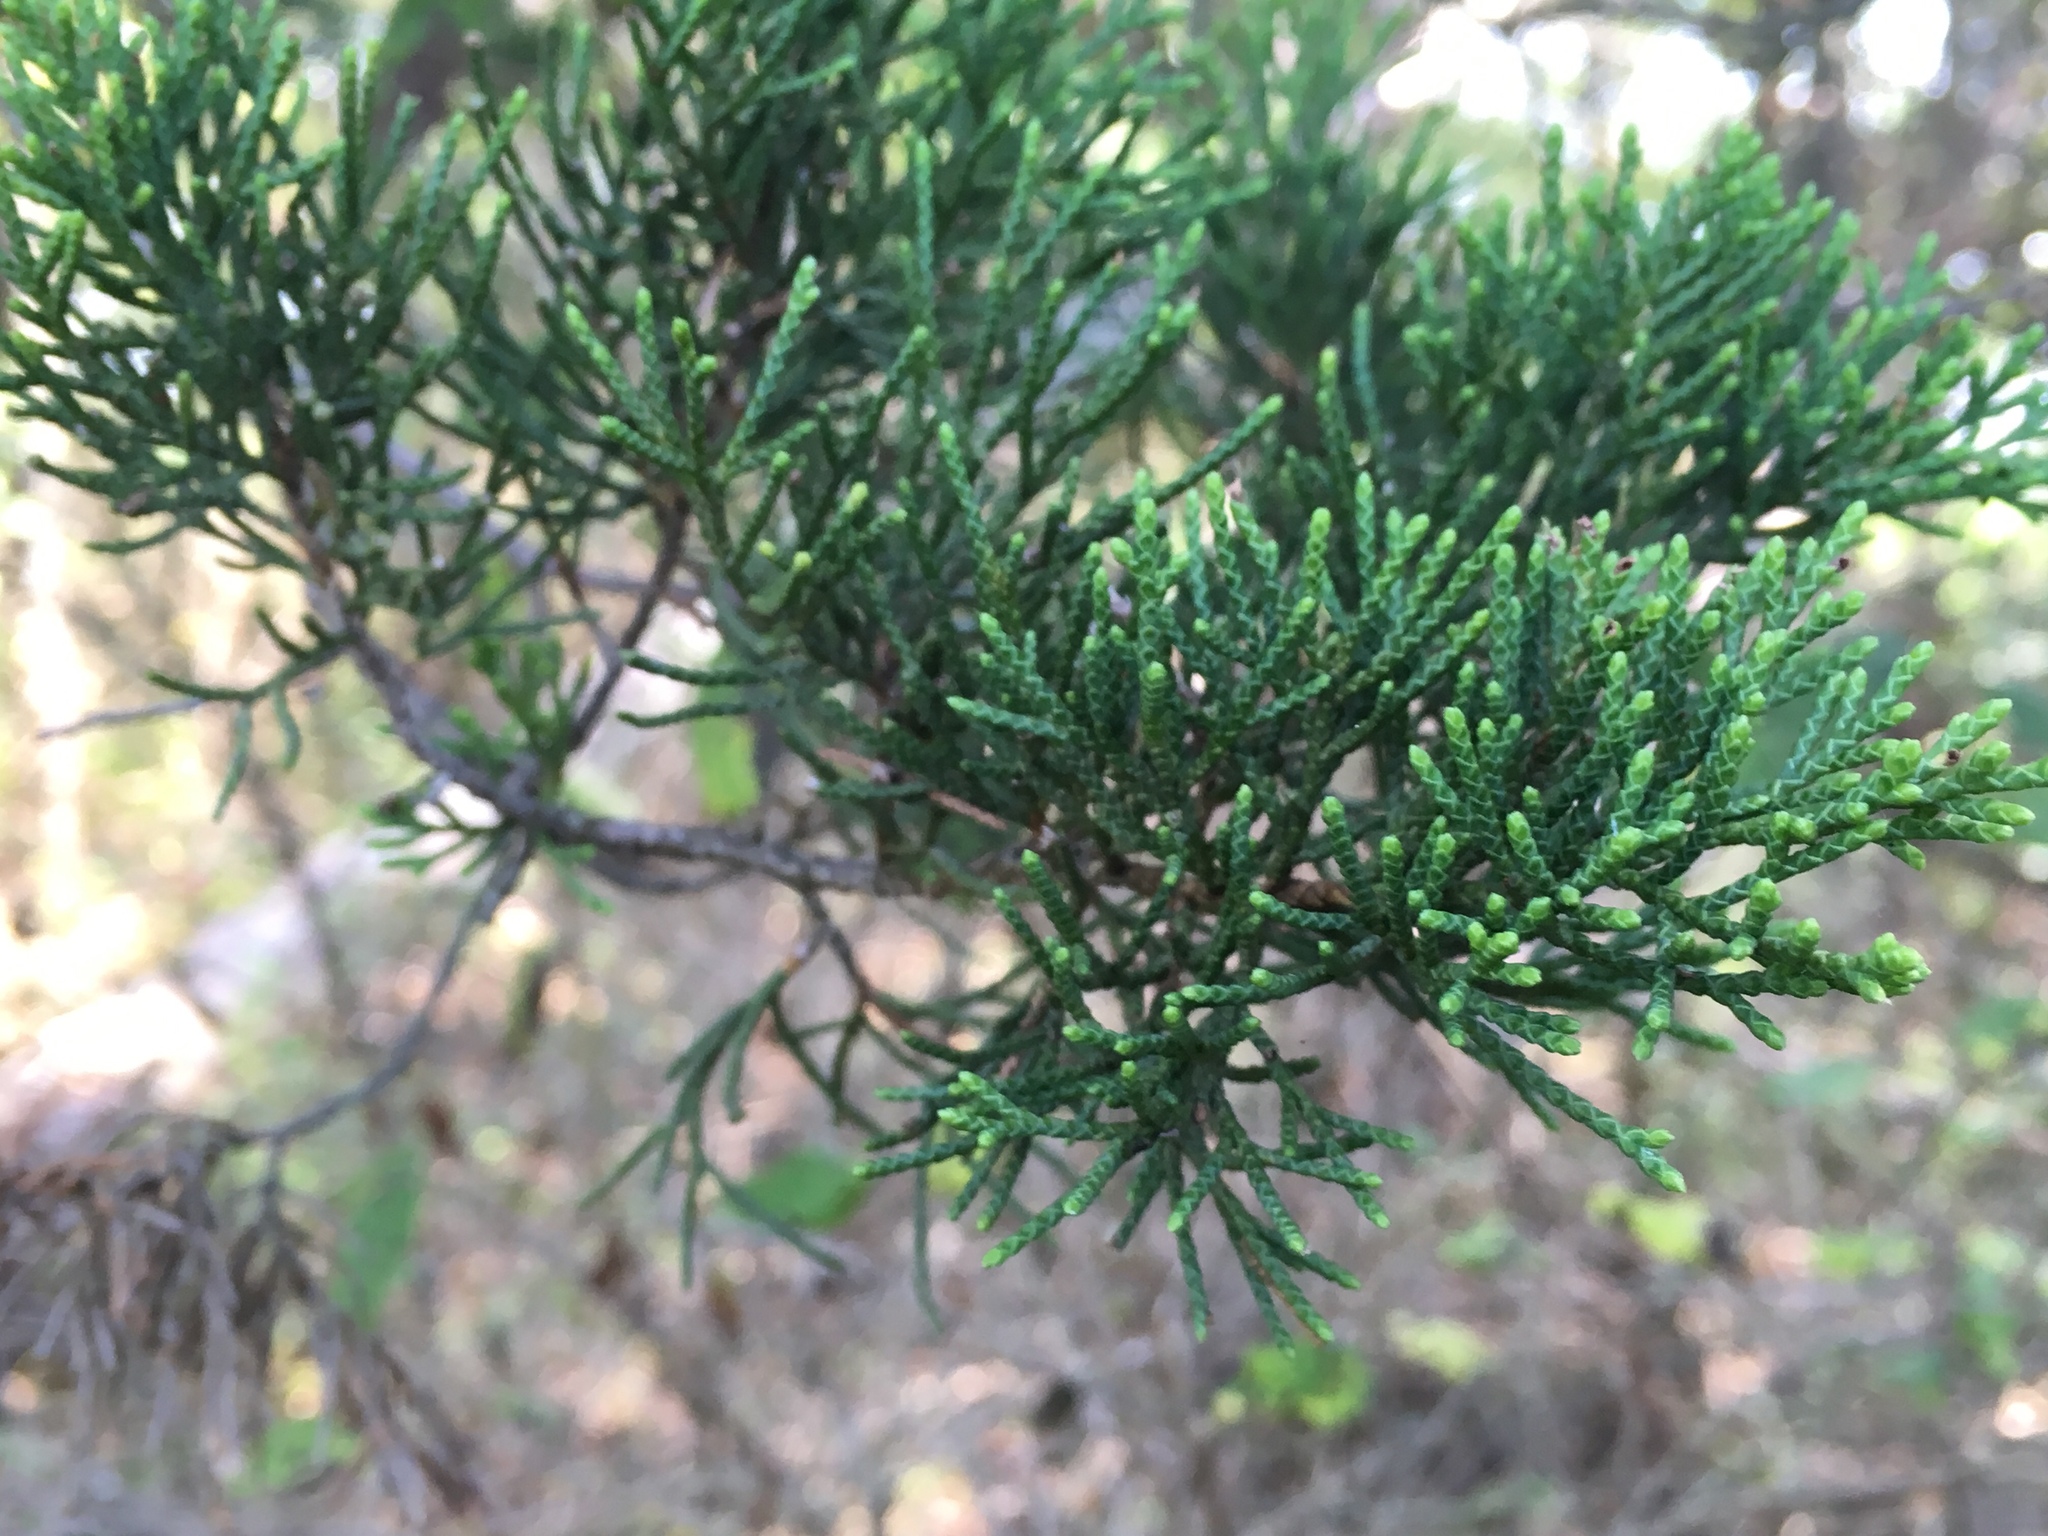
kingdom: Plantae
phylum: Tracheophyta
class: Pinopsida
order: Pinales
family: Cupressaceae
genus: Juniperus
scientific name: Juniperus virginiana
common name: Red juniper
